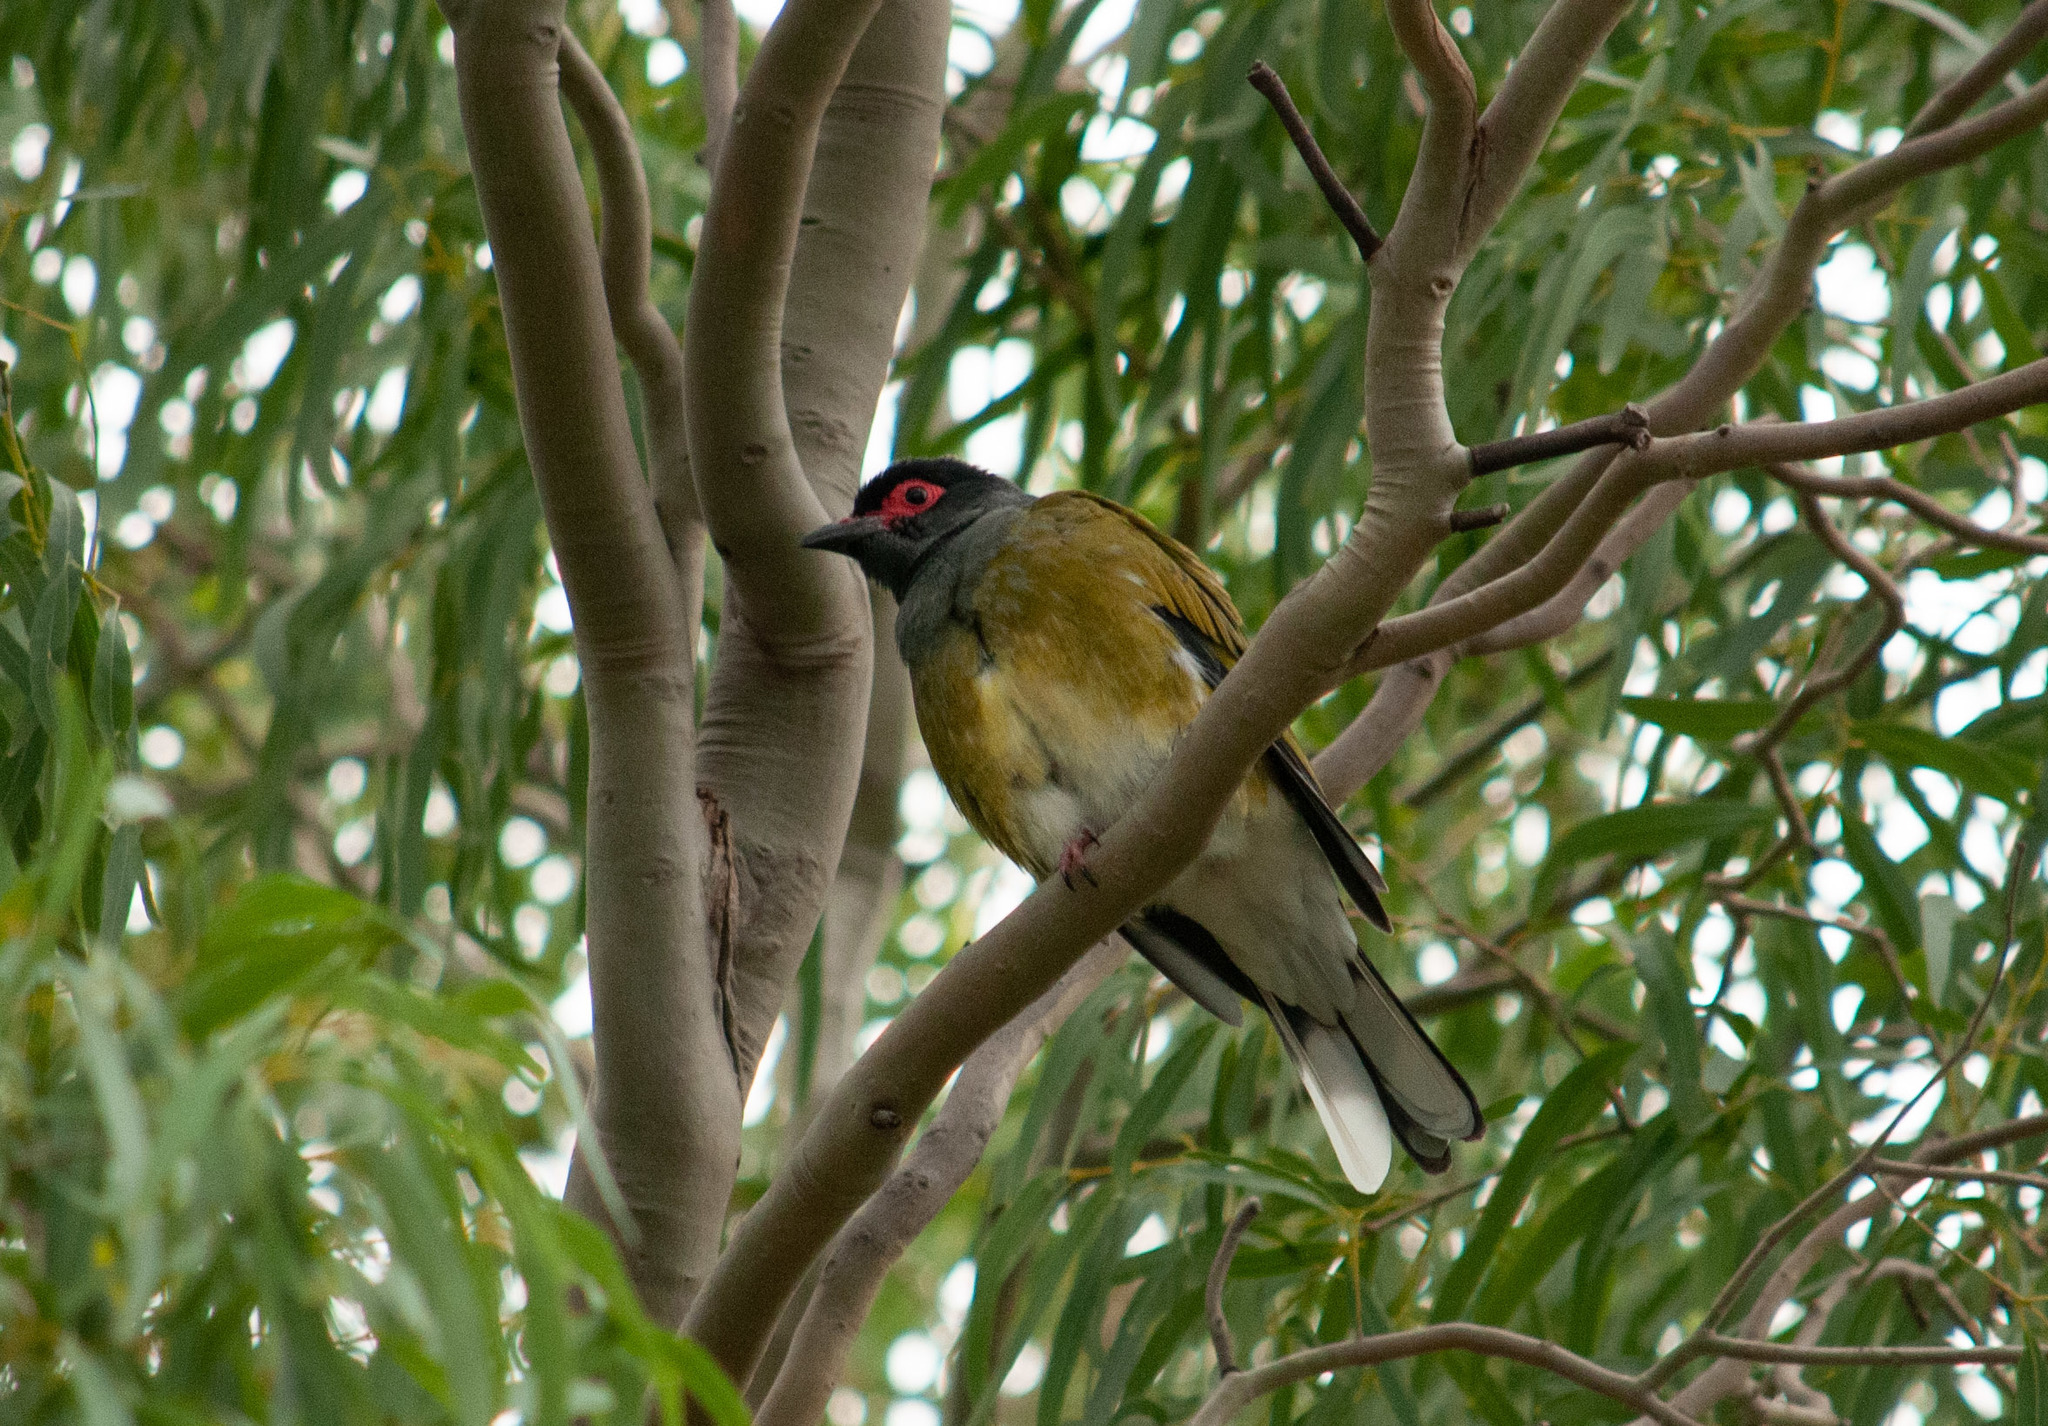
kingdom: Animalia
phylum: Chordata
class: Aves
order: Passeriformes
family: Oriolidae
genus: Sphecotheres
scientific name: Sphecotheres vieilloti
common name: Australasian figbird
